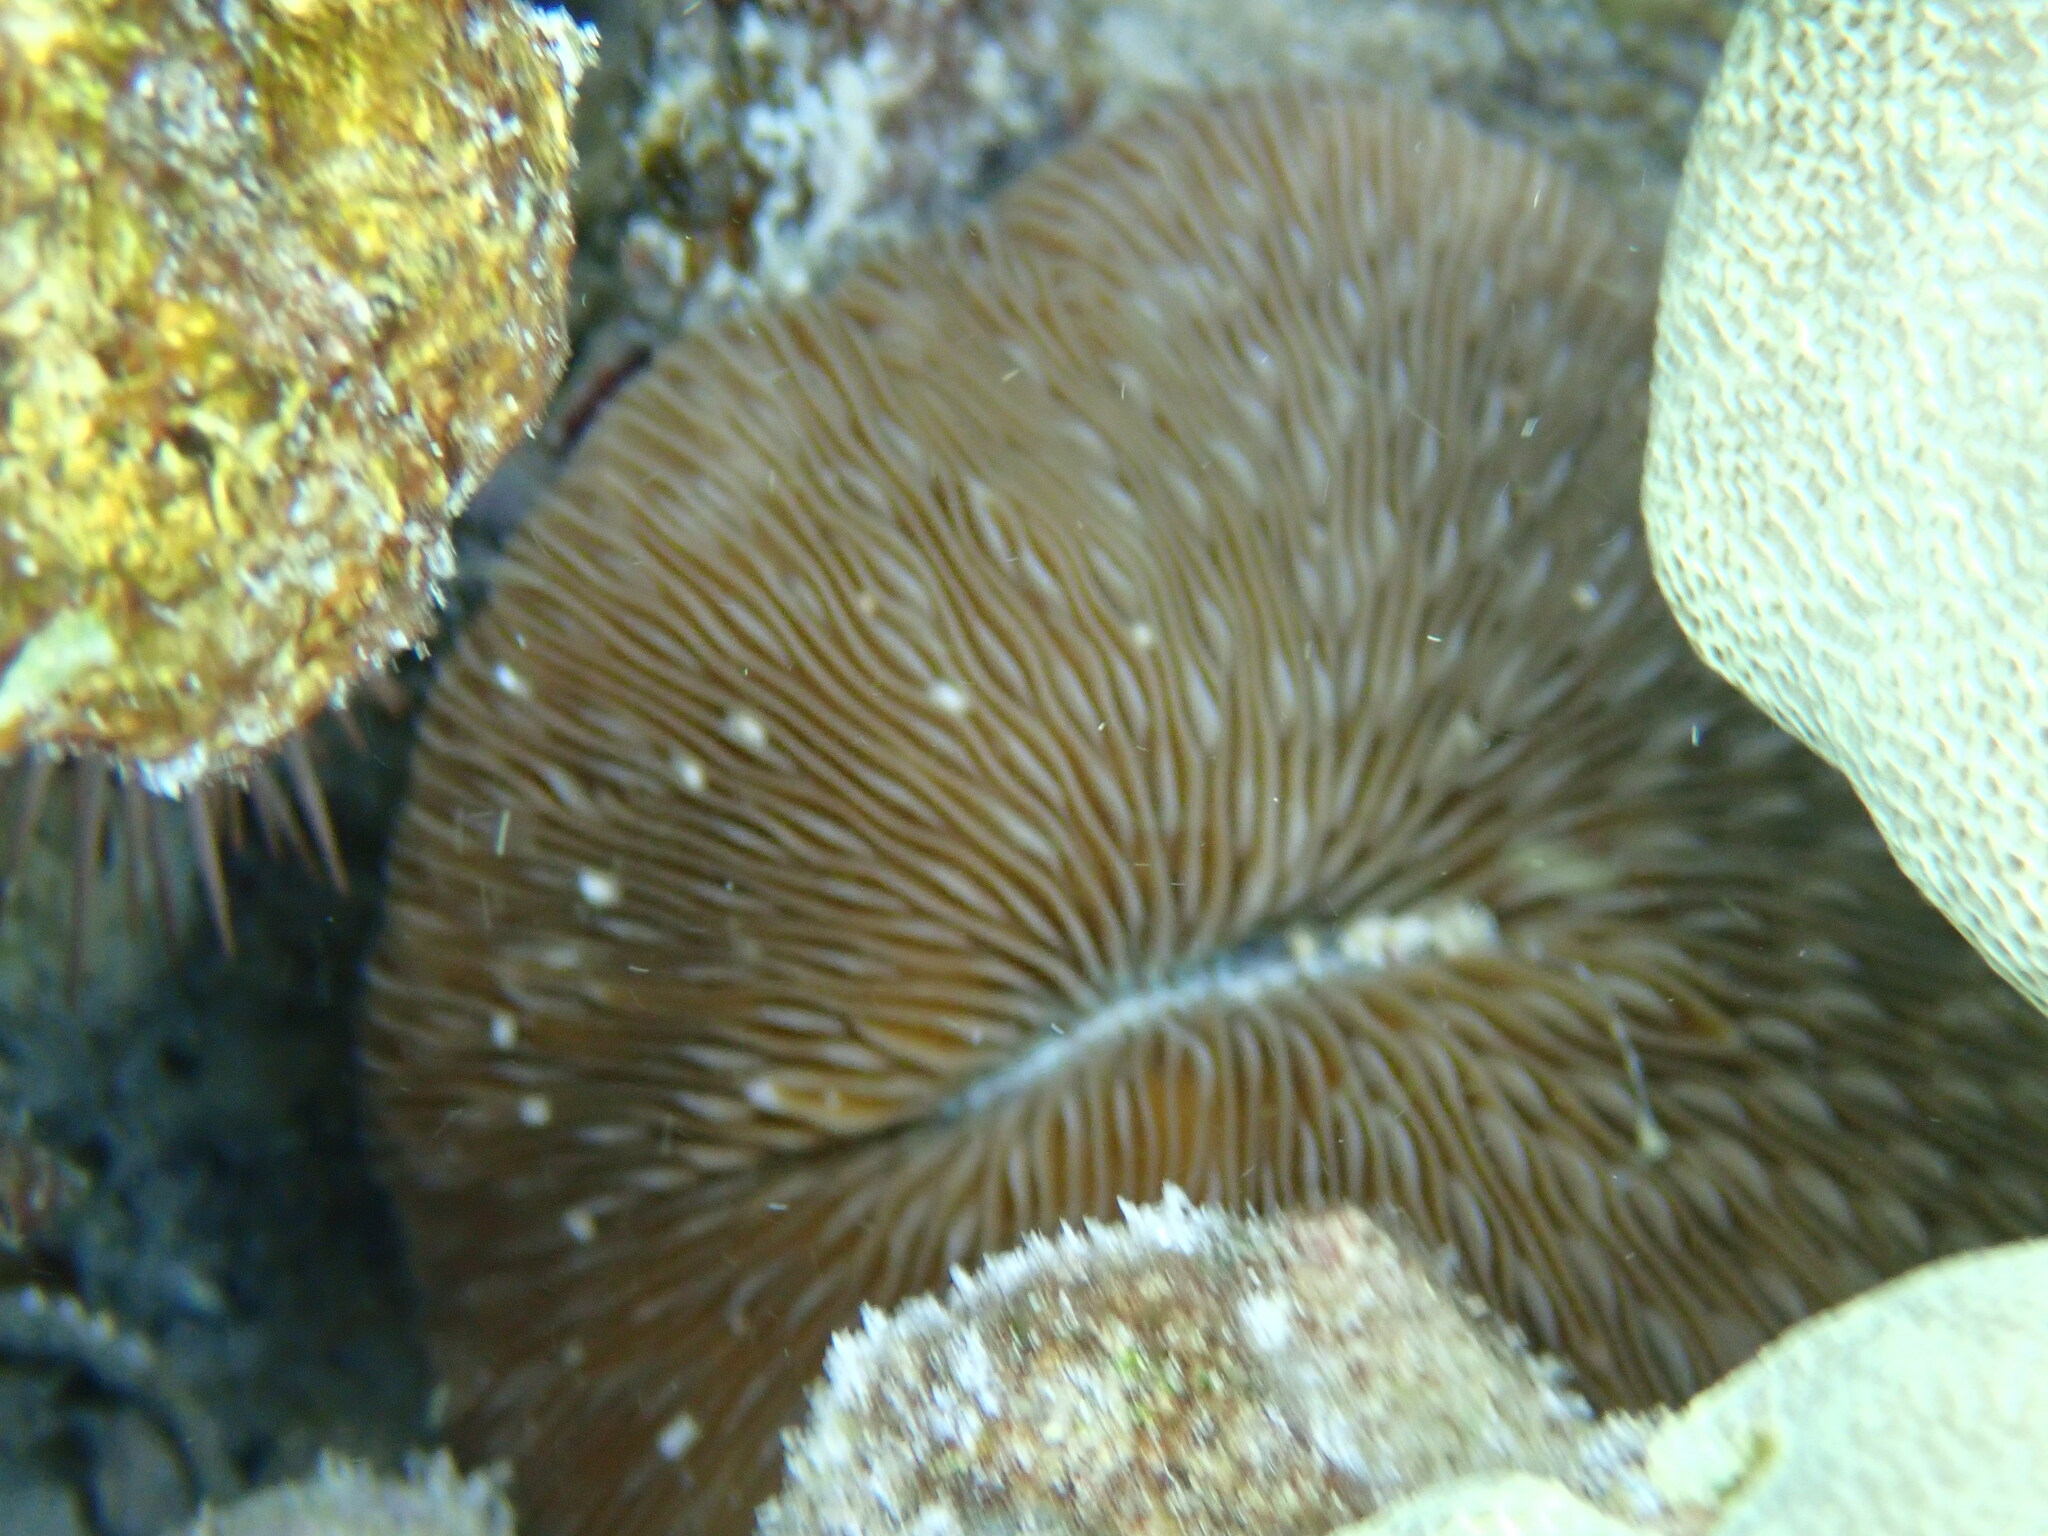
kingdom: Animalia
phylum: Cnidaria
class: Anthozoa
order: Scleractinia
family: Fungiidae
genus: Lobactis
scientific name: Lobactis scutaria
